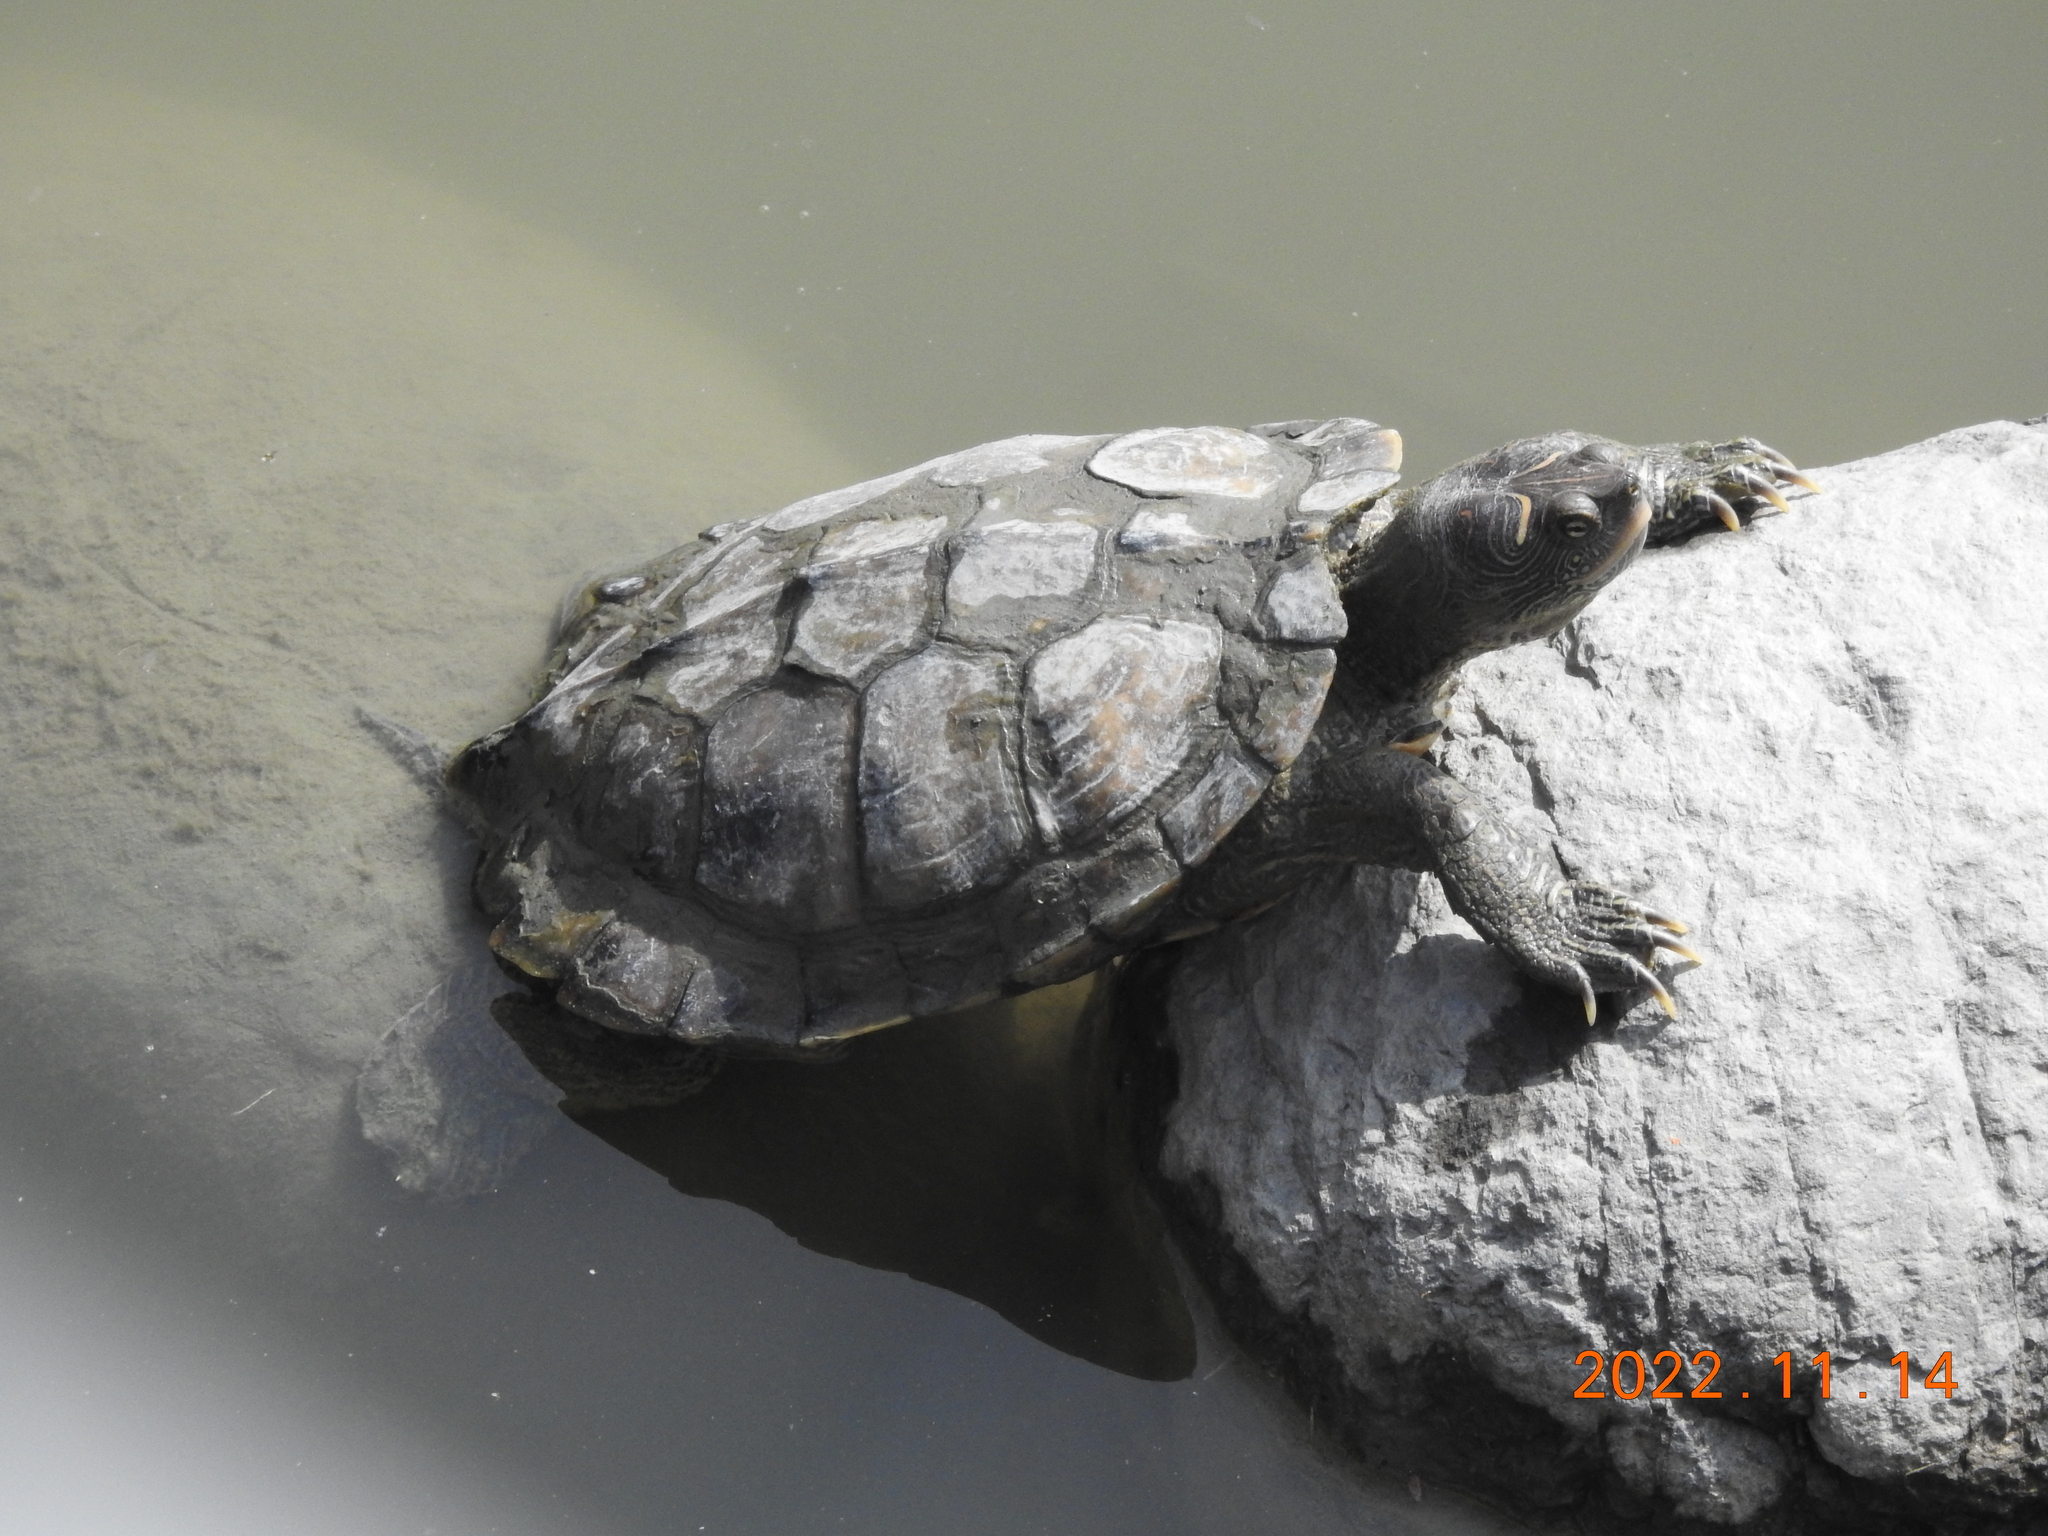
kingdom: Animalia
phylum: Chordata
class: Testudines
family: Emydidae
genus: Graptemys
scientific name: Graptemys ouachitensis
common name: Ouachita map turtle
